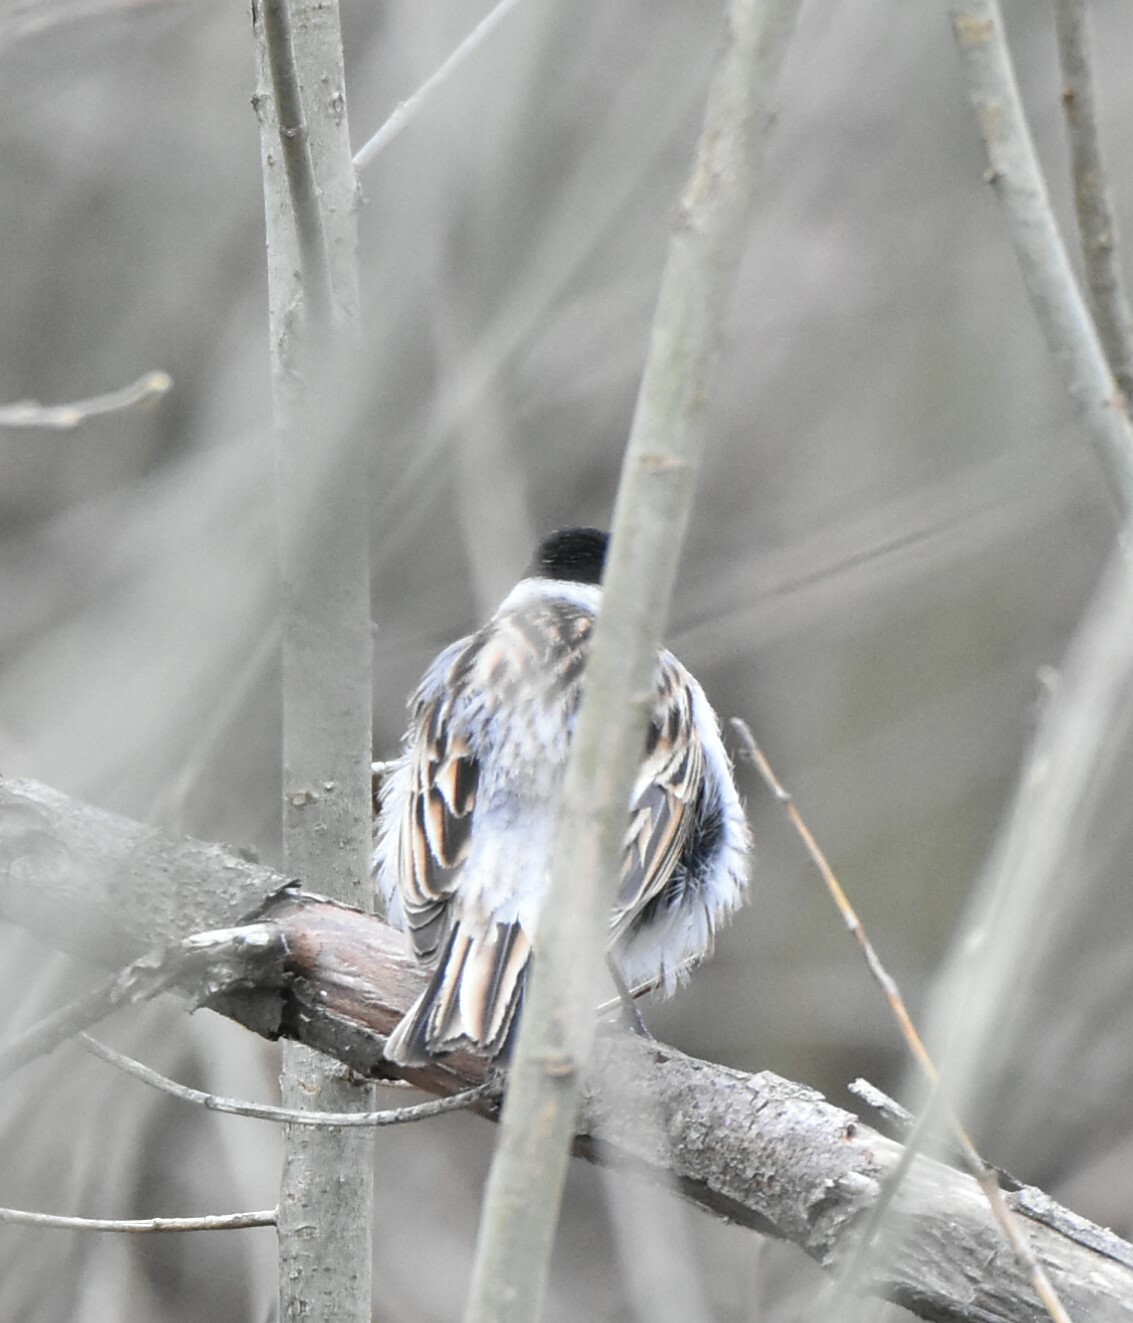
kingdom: Animalia
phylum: Chordata
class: Aves
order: Passeriformes
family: Emberizidae
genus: Emberiza
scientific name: Emberiza schoeniclus
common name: Reed bunting
